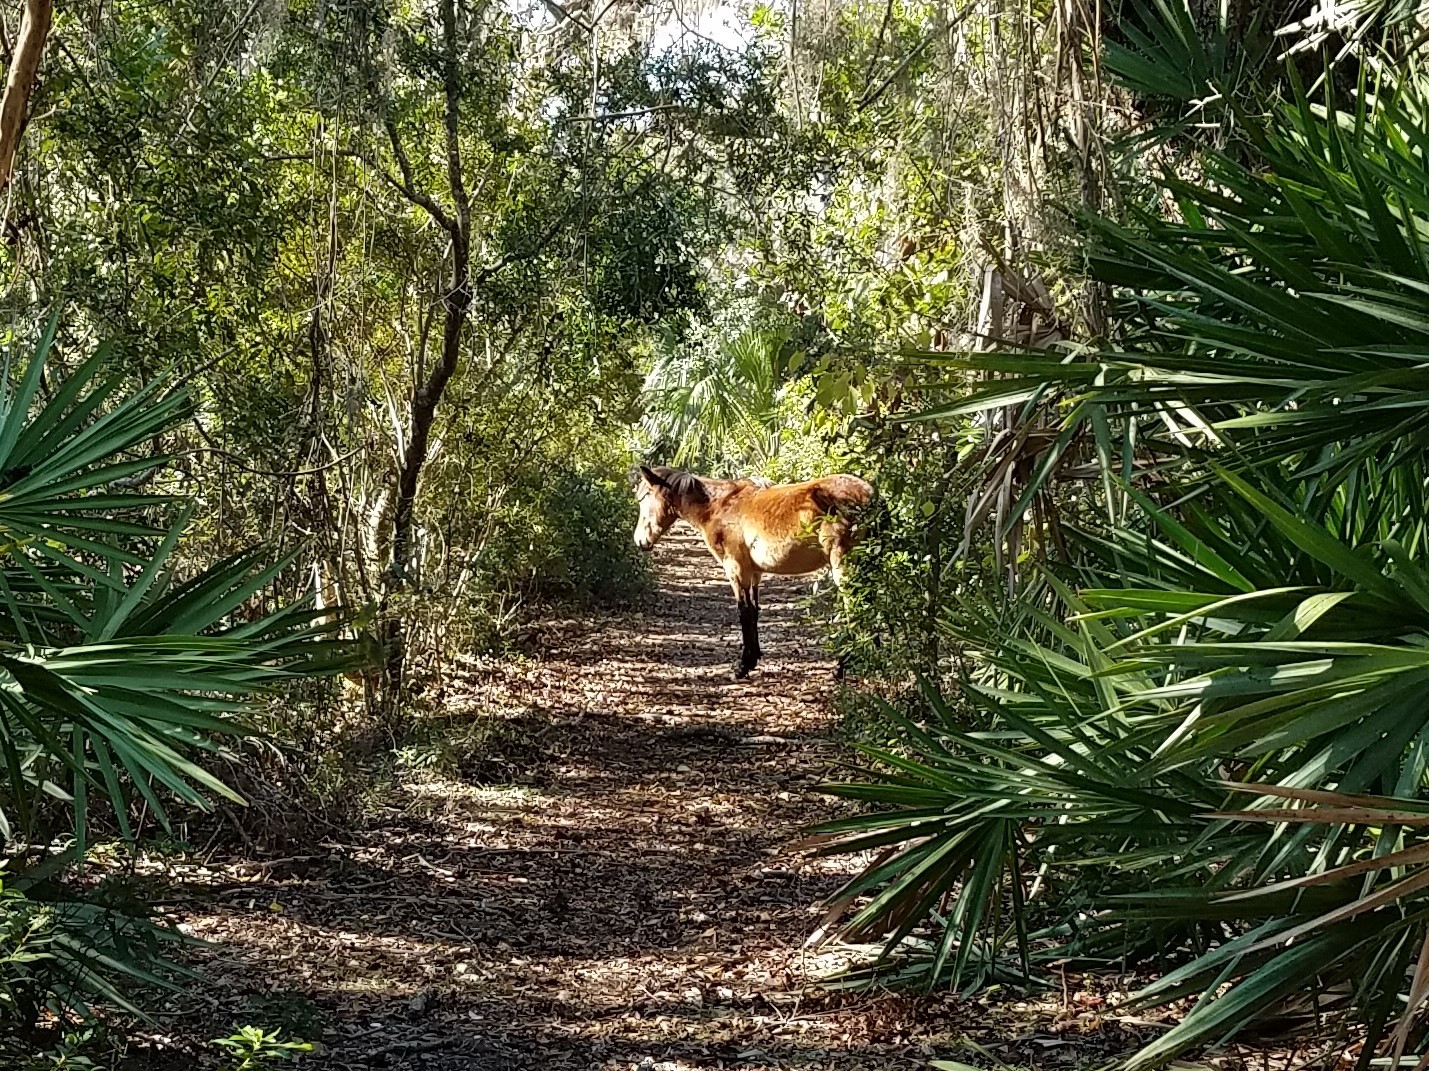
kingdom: Animalia
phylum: Chordata
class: Mammalia
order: Perissodactyla
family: Equidae
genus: Equus
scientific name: Equus caballus
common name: Horse
